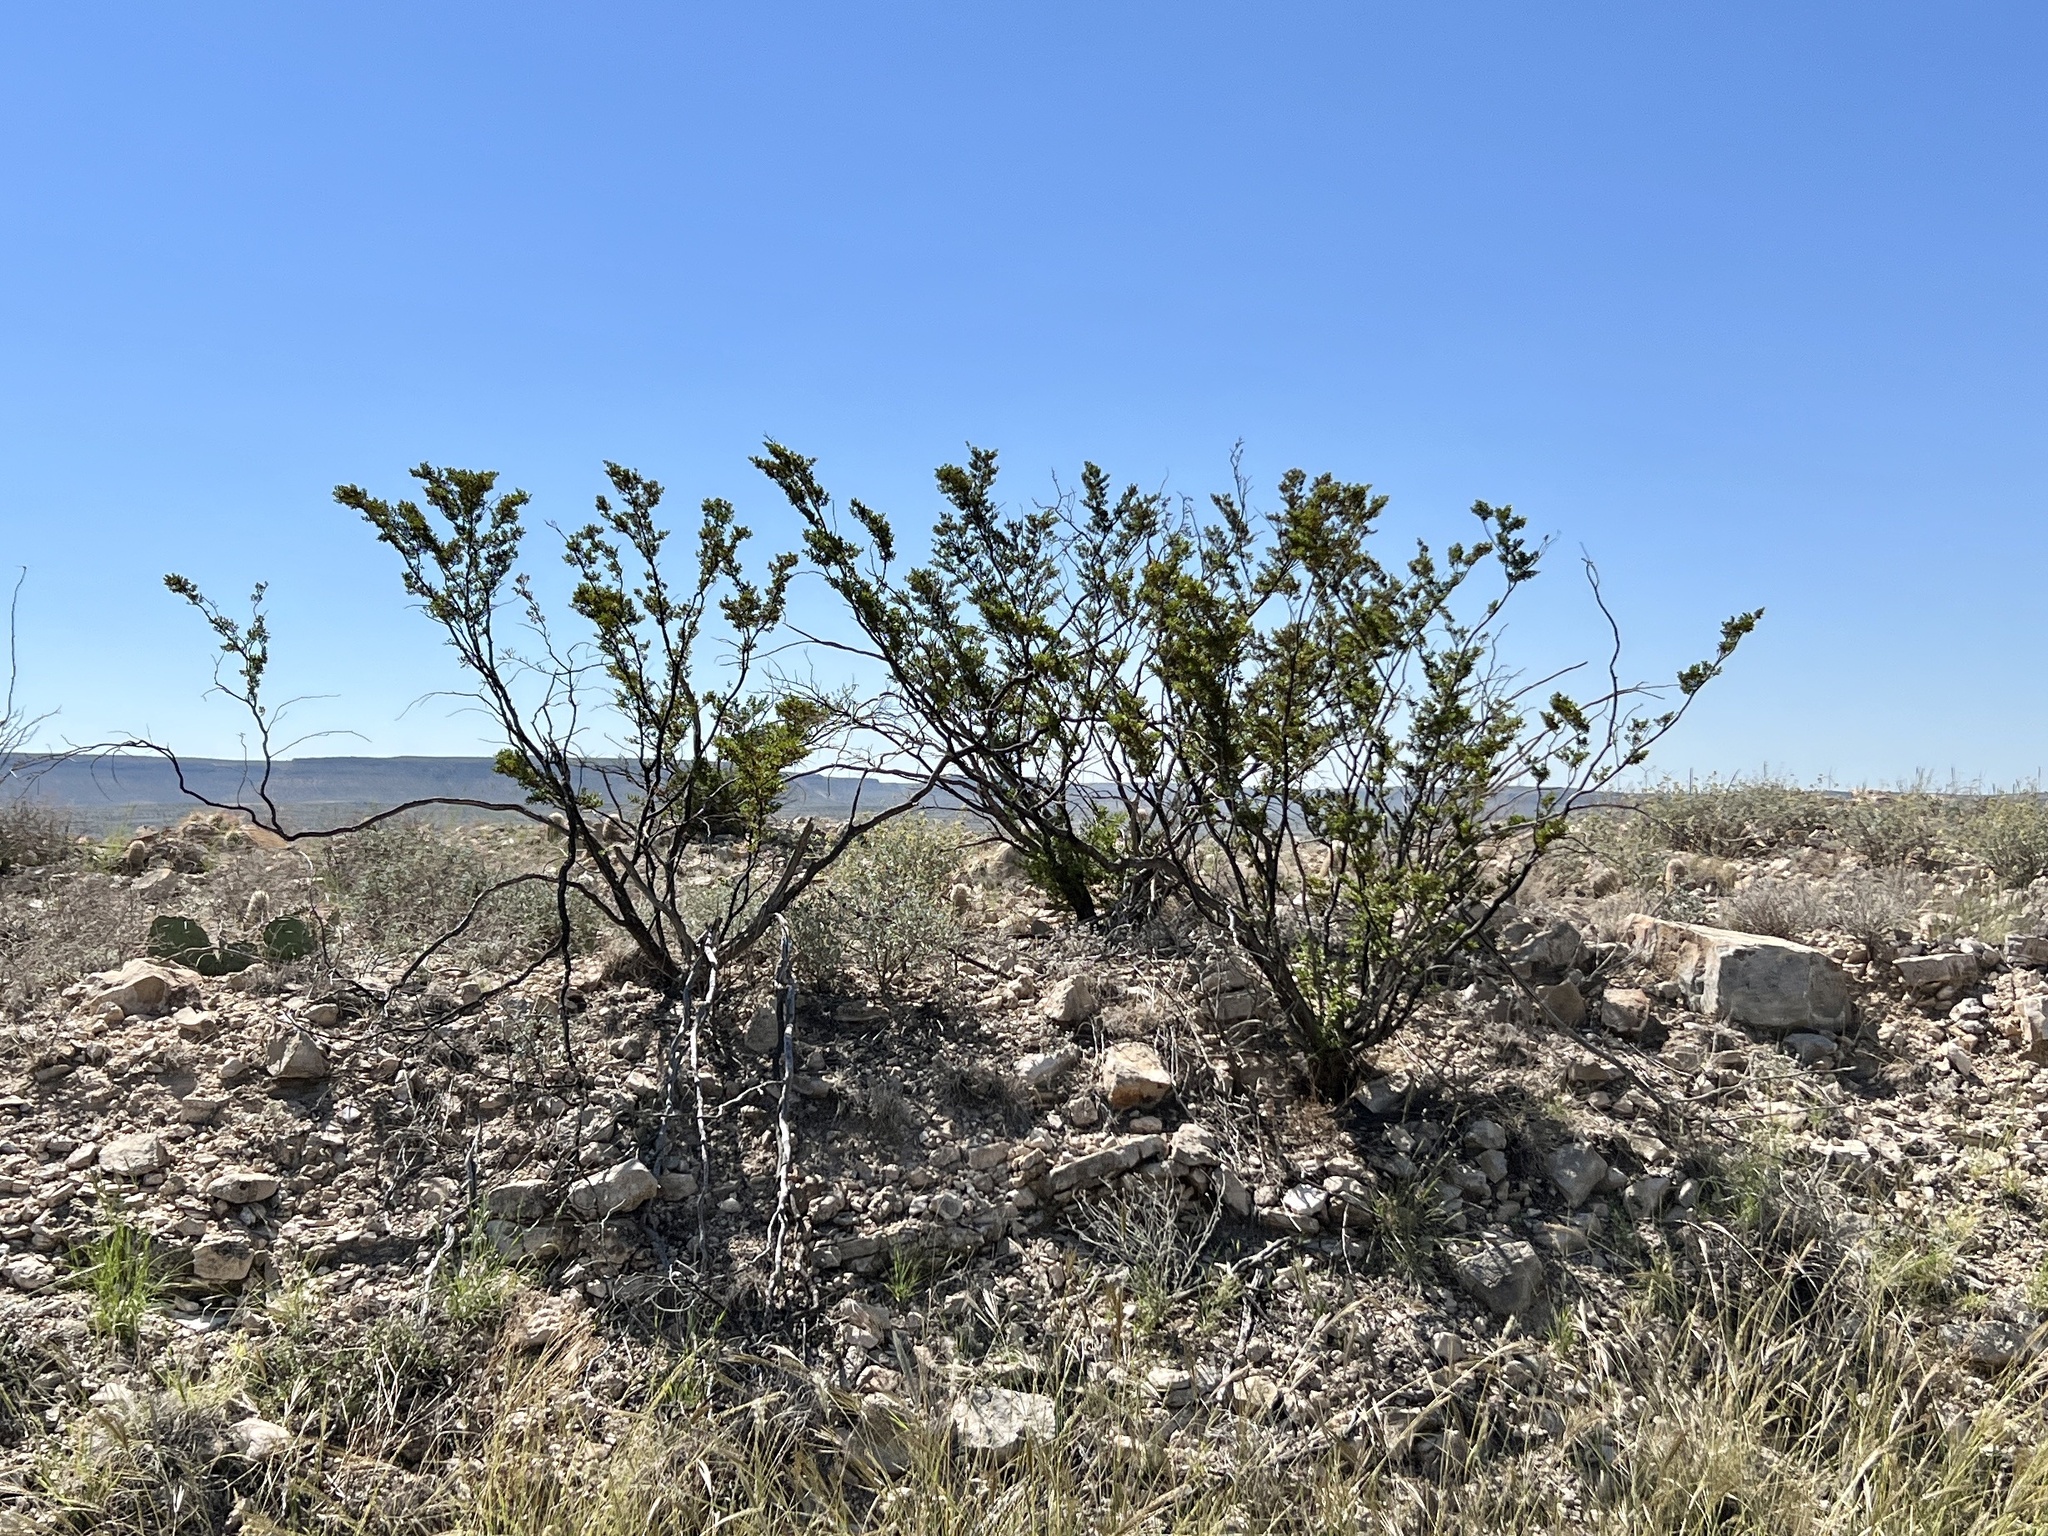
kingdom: Plantae
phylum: Tracheophyta
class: Magnoliopsida
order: Zygophyllales
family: Zygophyllaceae
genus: Larrea
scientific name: Larrea tridentata
